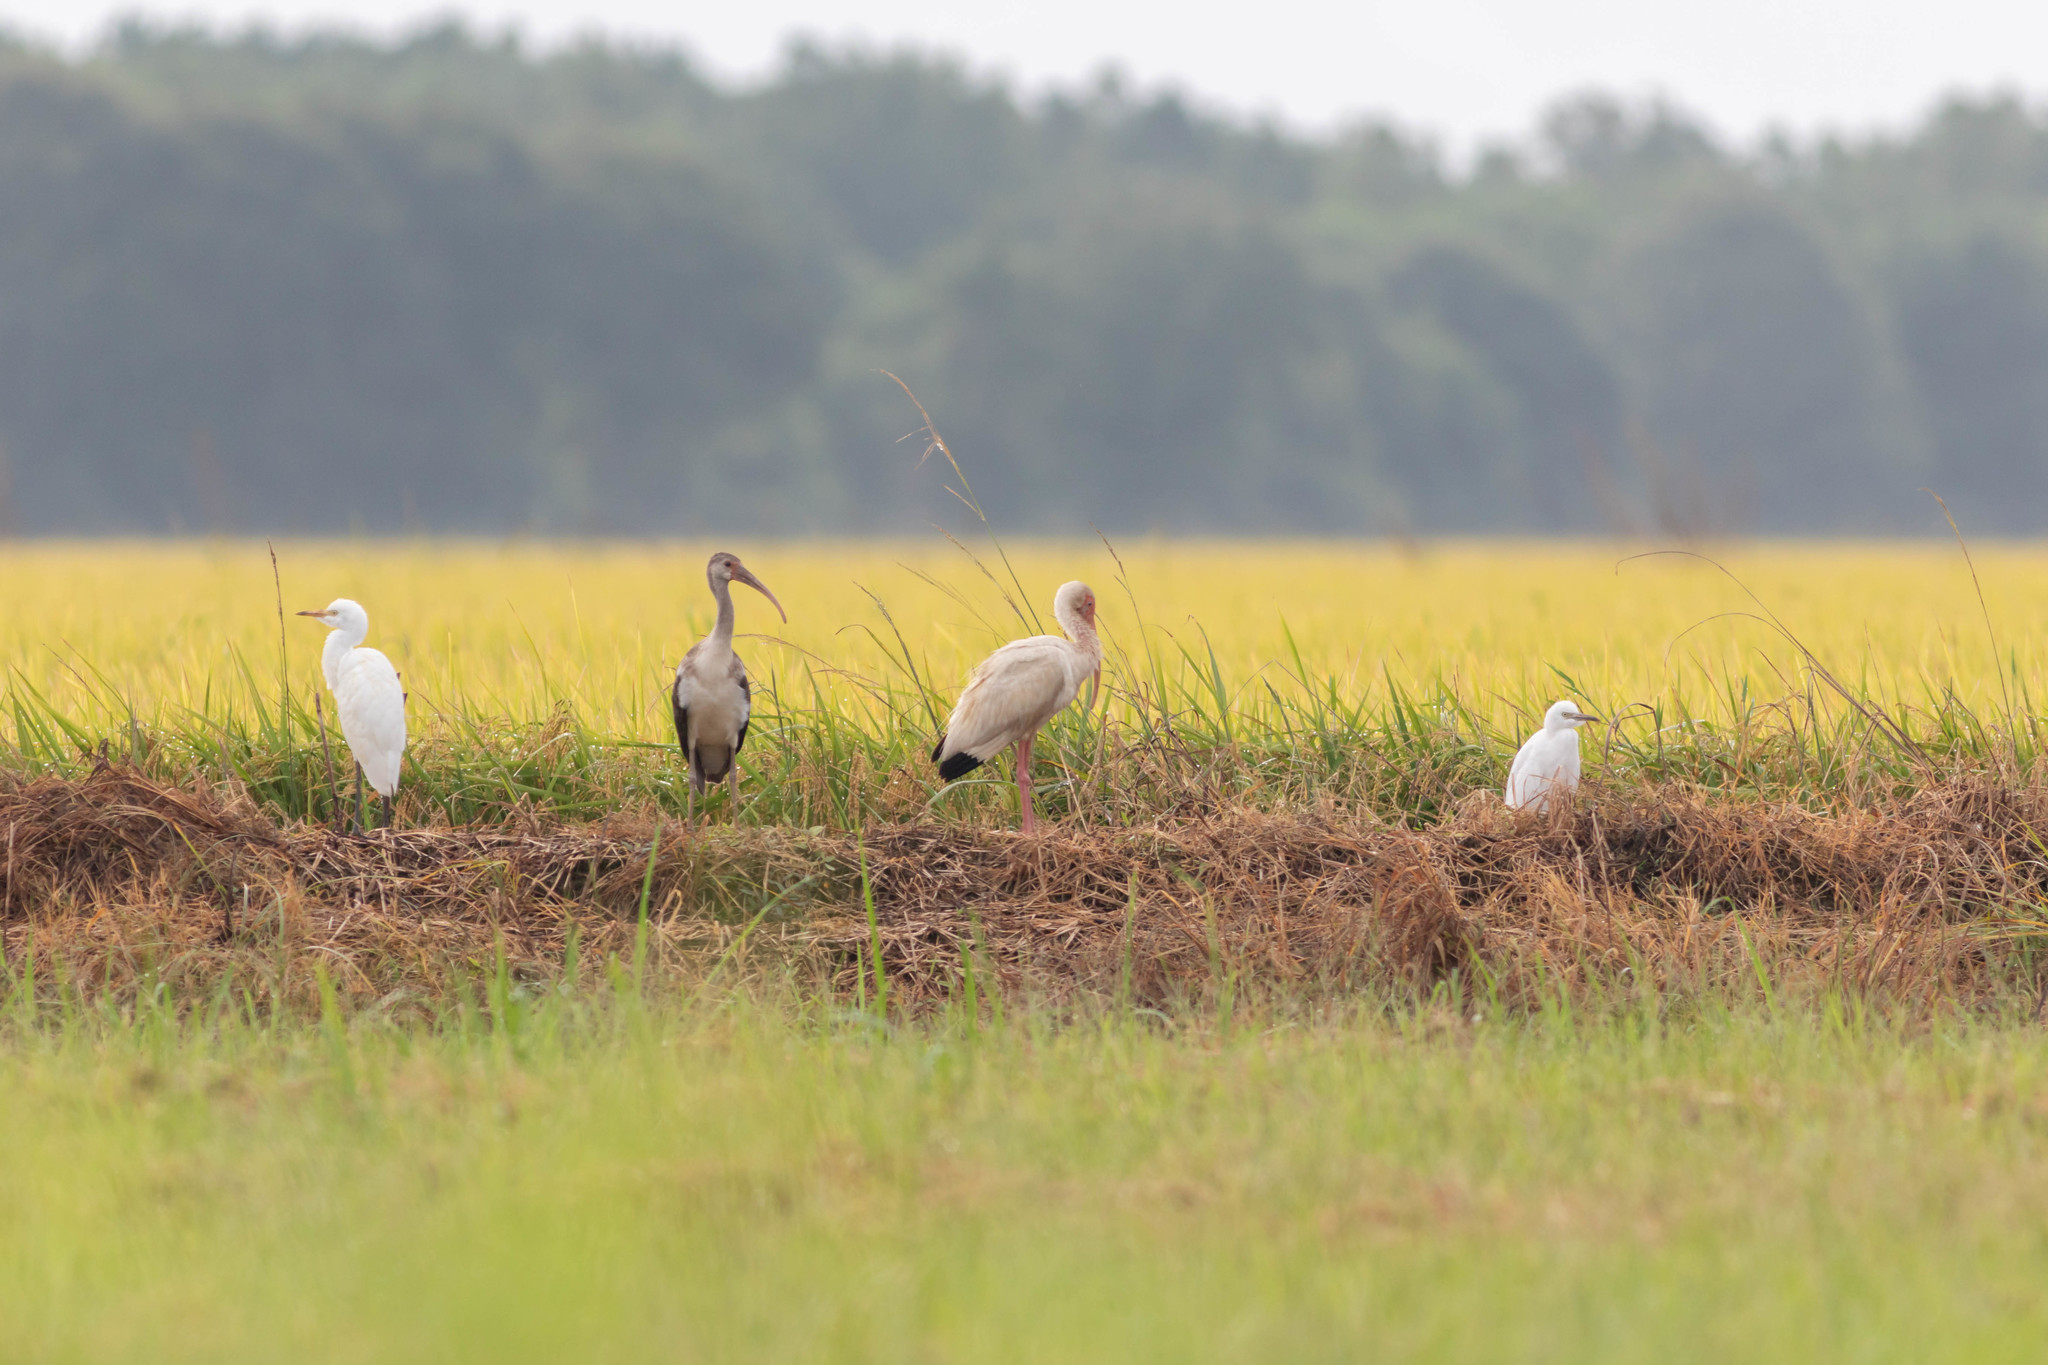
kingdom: Animalia
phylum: Chordata
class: Aves
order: Pelecaniformes
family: Threskiornithidae
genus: Eudocimus
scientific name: Eudocimus albus
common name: White ibis
